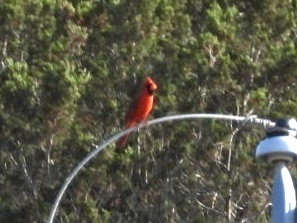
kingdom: Animalia
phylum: Chordata
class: Aves
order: Passeriformes
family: Cardinalidae
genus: Cardinalis
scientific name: Cardinalis cardinalis
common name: Northern cardinal
